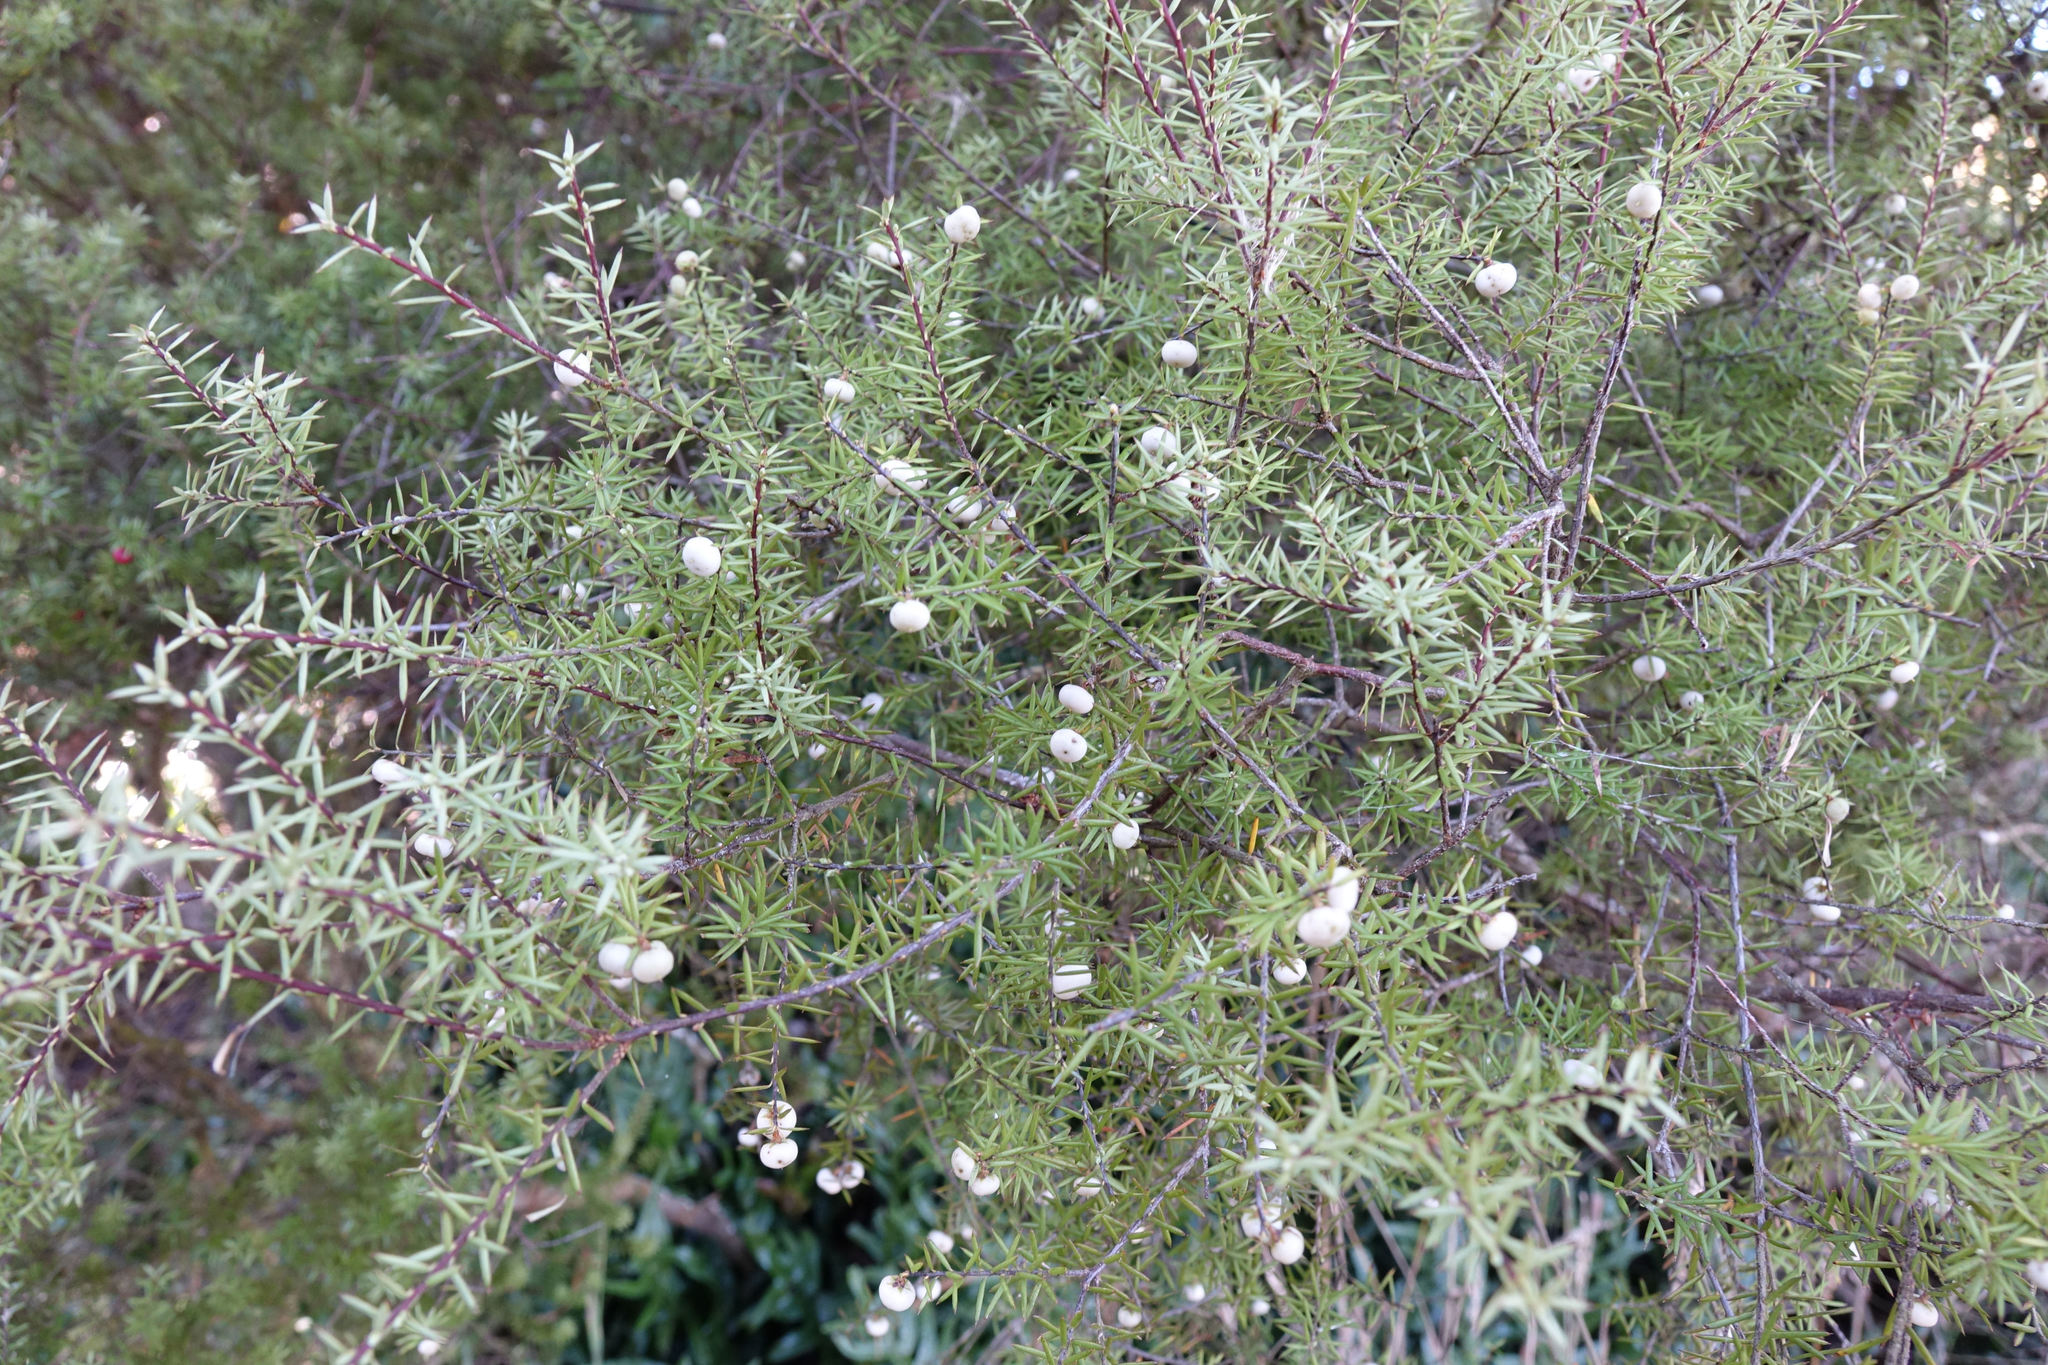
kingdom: Plantae
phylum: Tracheophyta
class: Magnoliopsida
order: Ericales
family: Ericaceae
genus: Leptecophylla
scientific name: Leptecophylla juniperina
